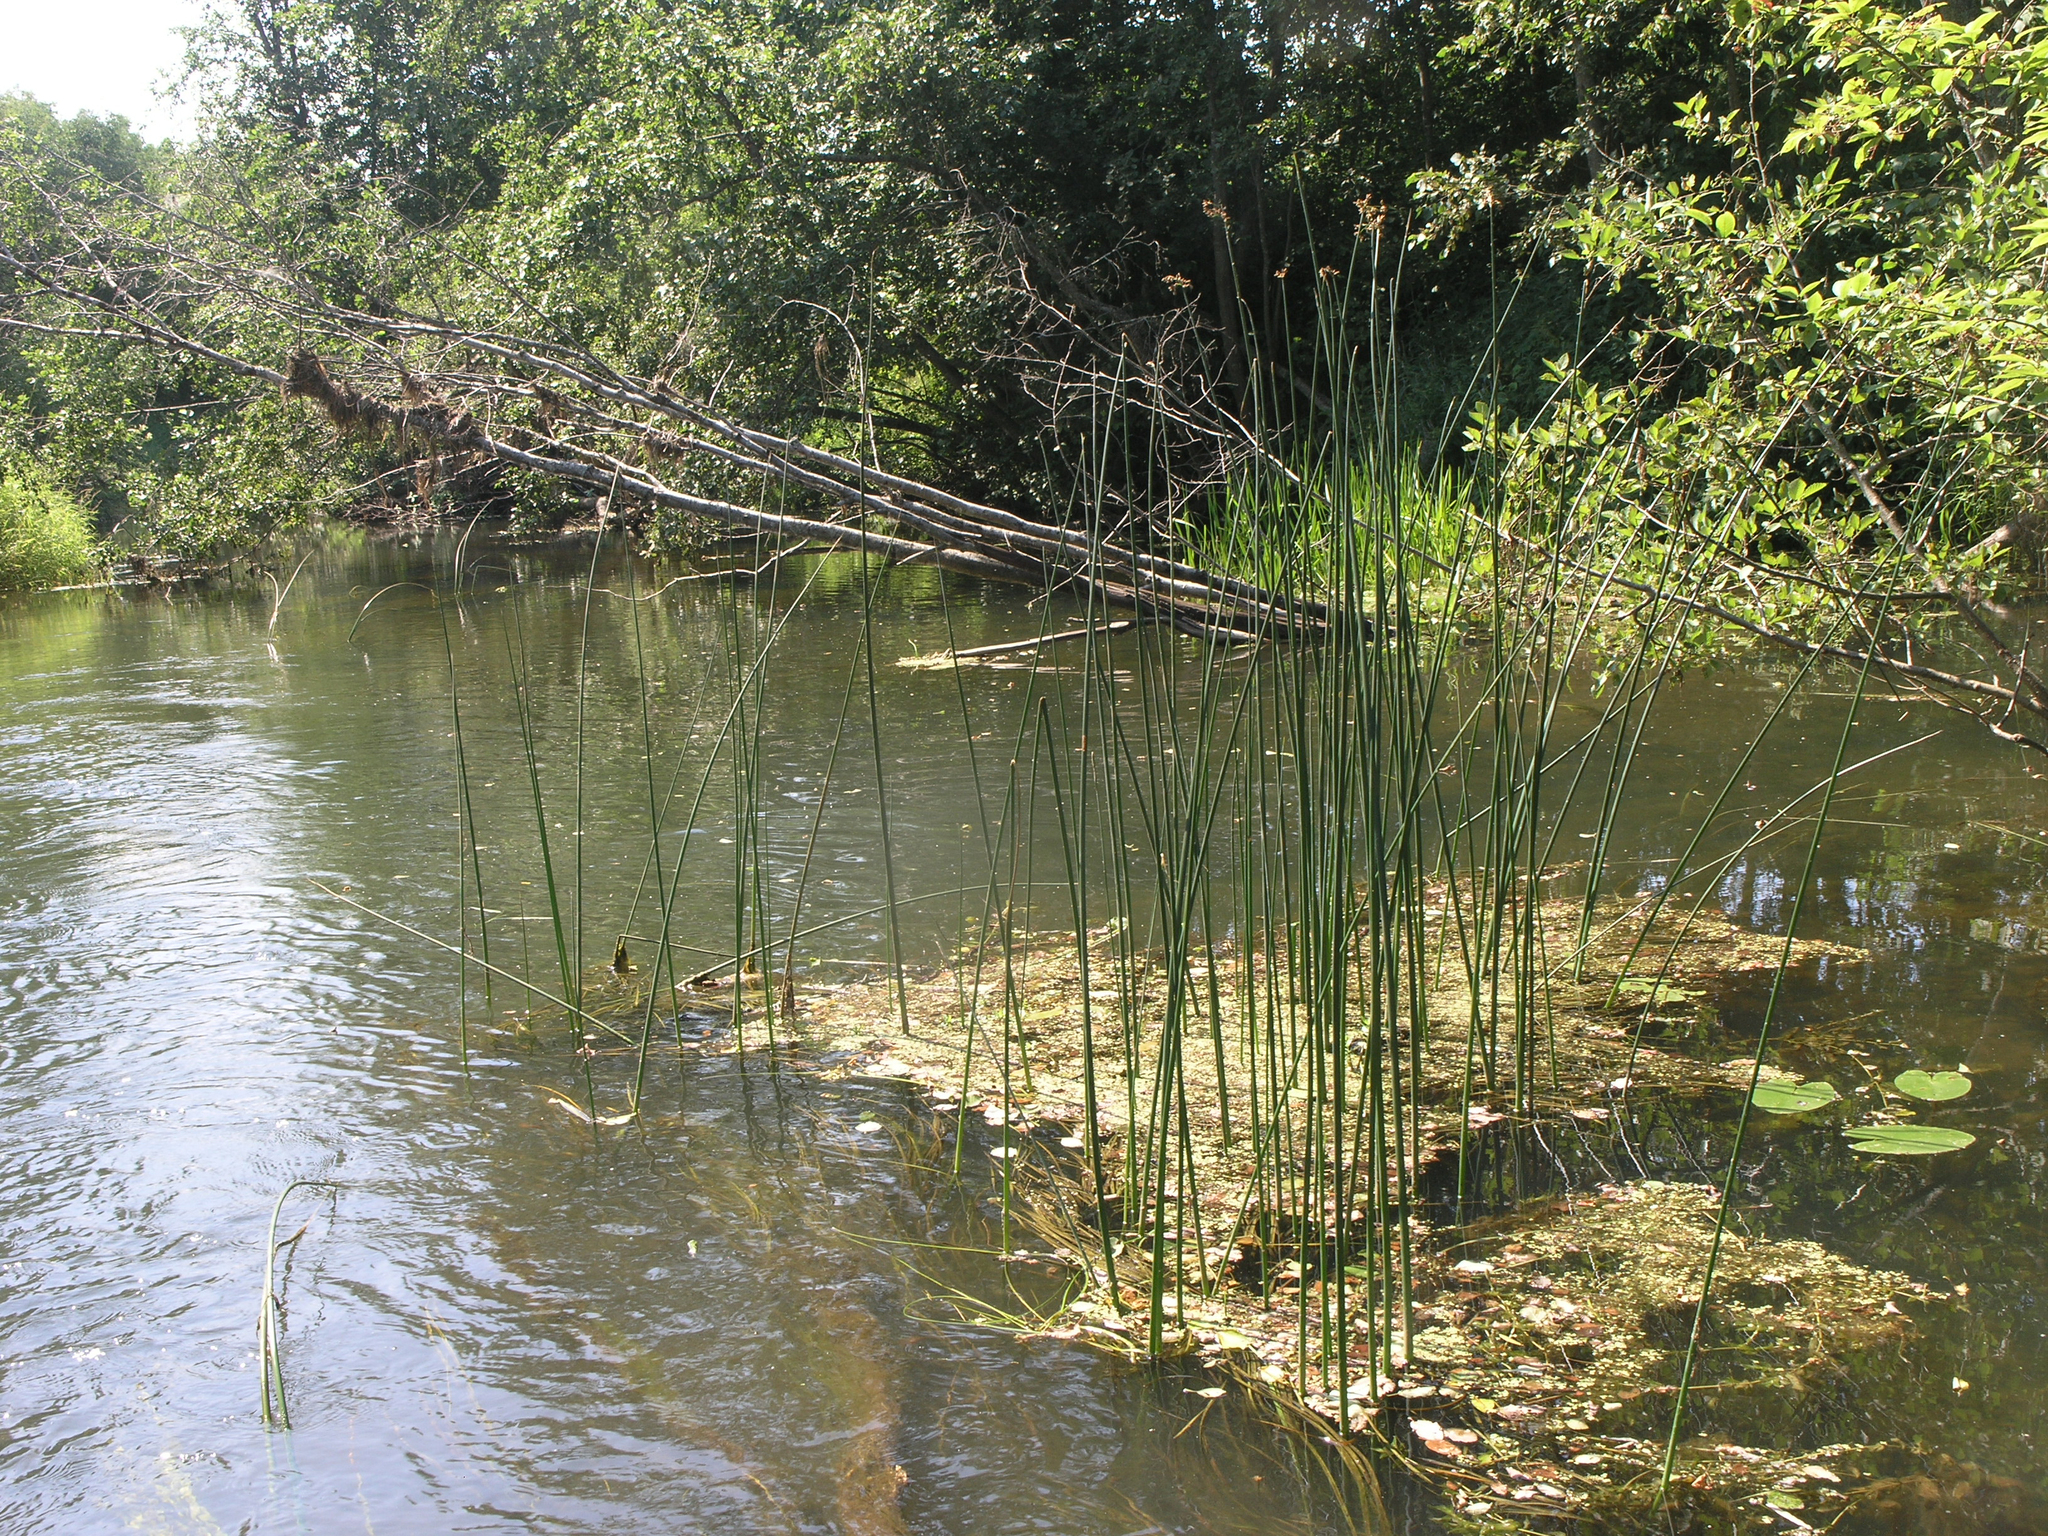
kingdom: Plantae
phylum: Tracheophyta
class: Liliopsida
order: Poales
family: Cyperaceae
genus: Schoenoplectus
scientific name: Schoenoplectus lacustris
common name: Common club-rush
